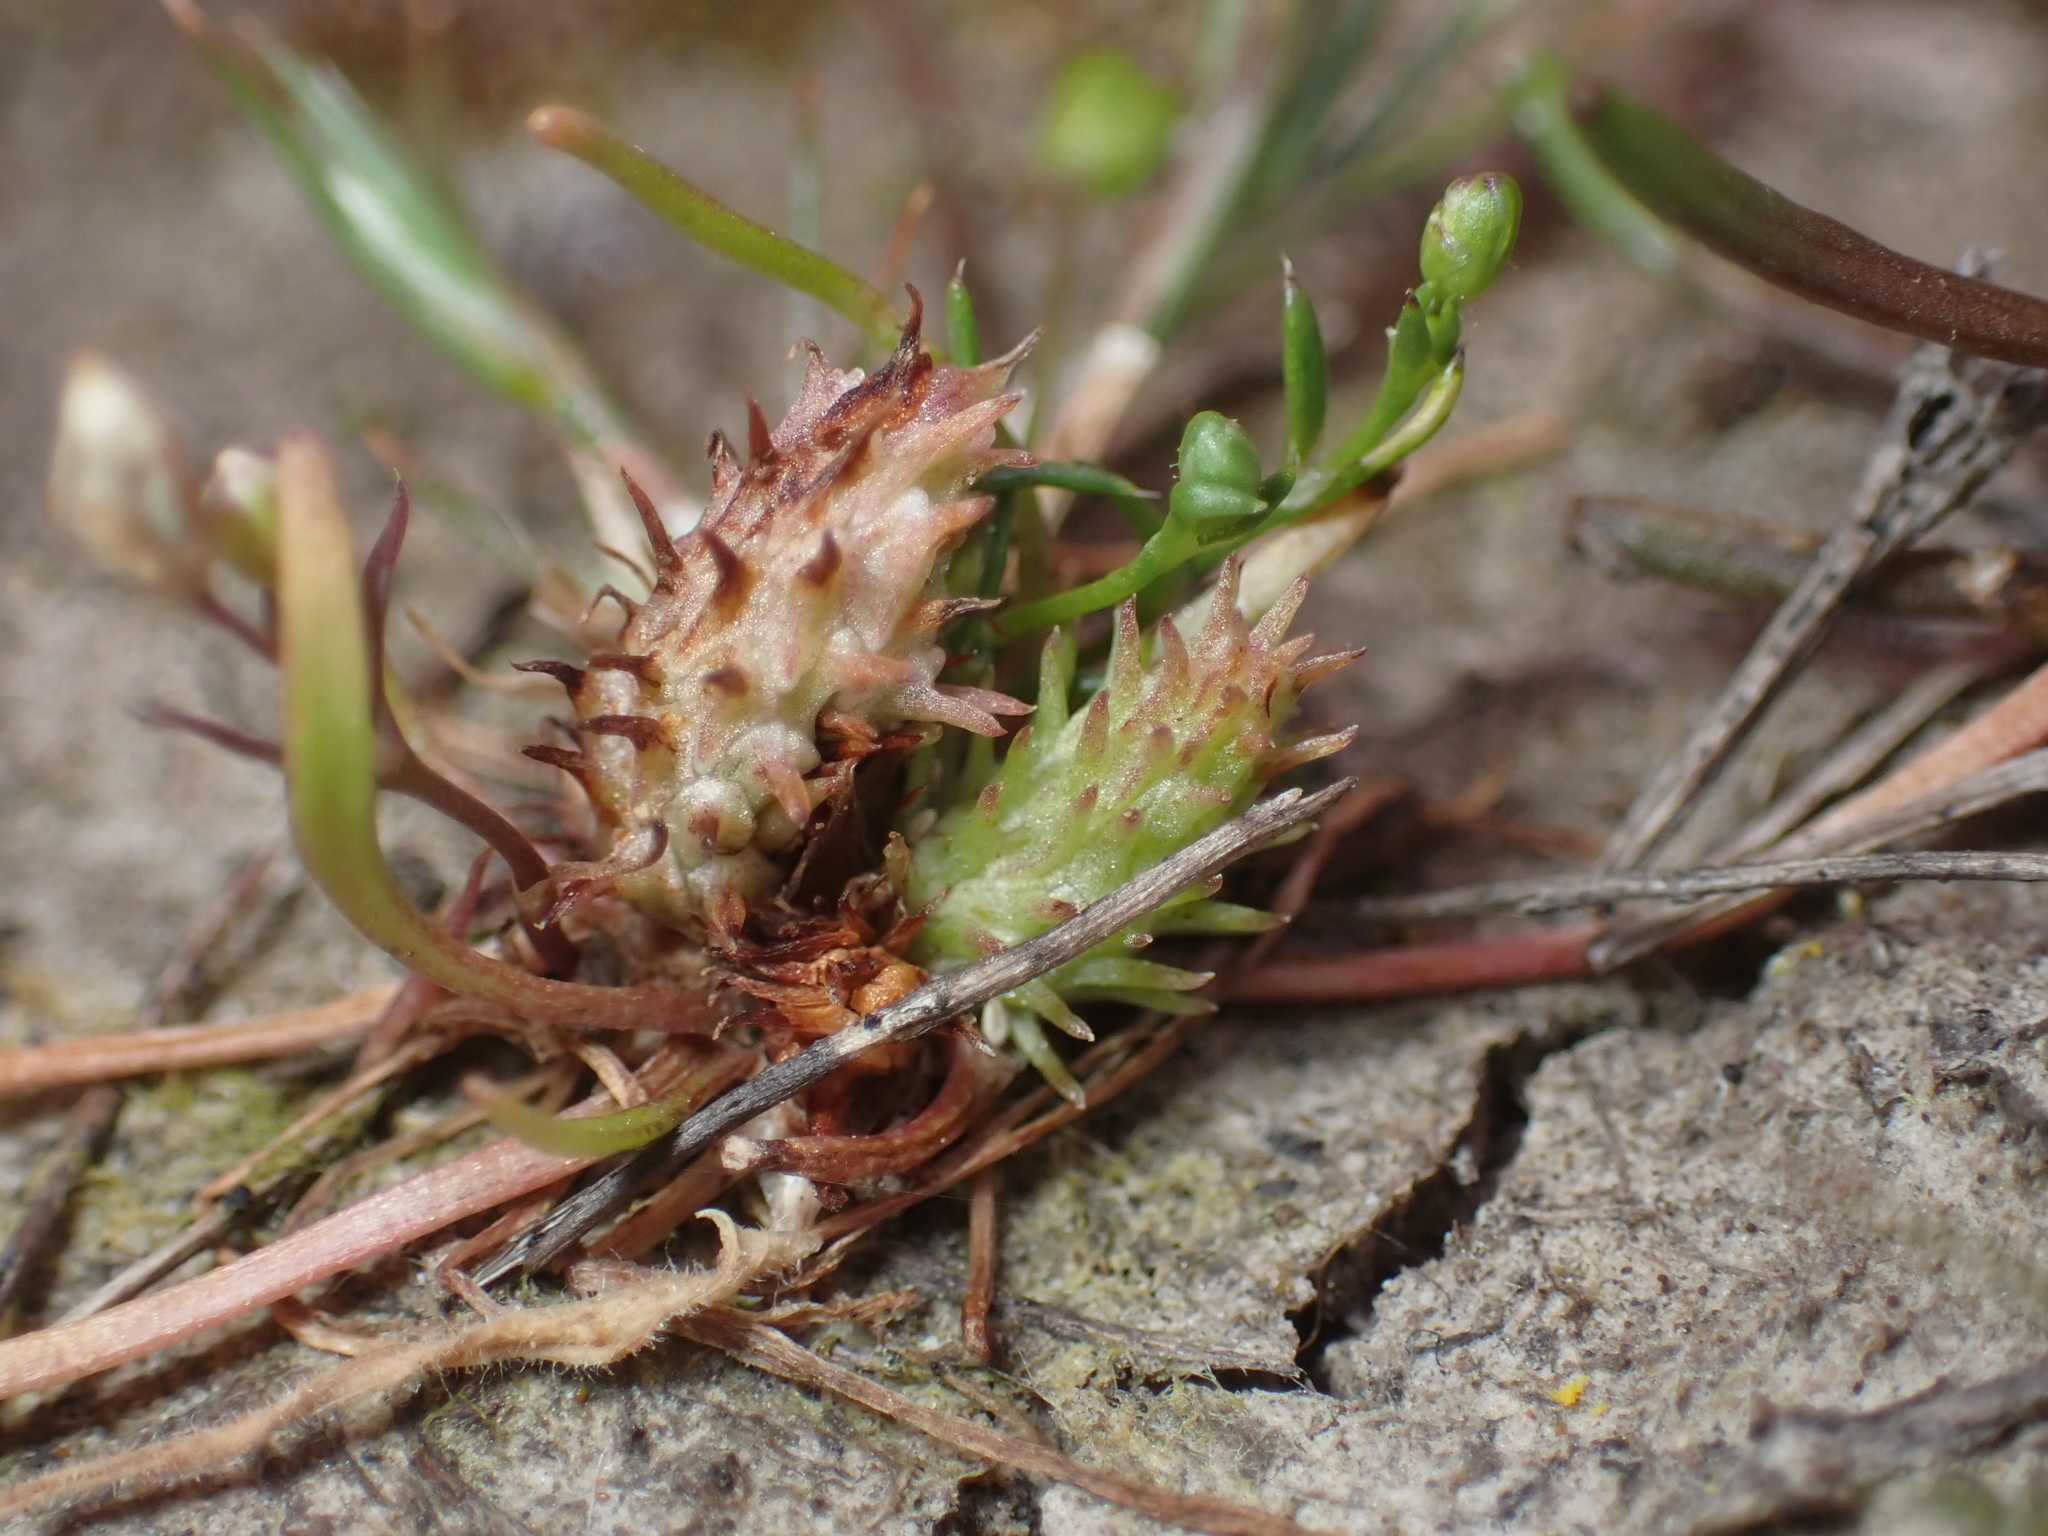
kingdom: Plantae
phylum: Tracheophyta
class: Magnoliopsida
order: Ranunculales
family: Ranunculaceae
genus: Myosurus
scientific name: Myosurus sessilis
